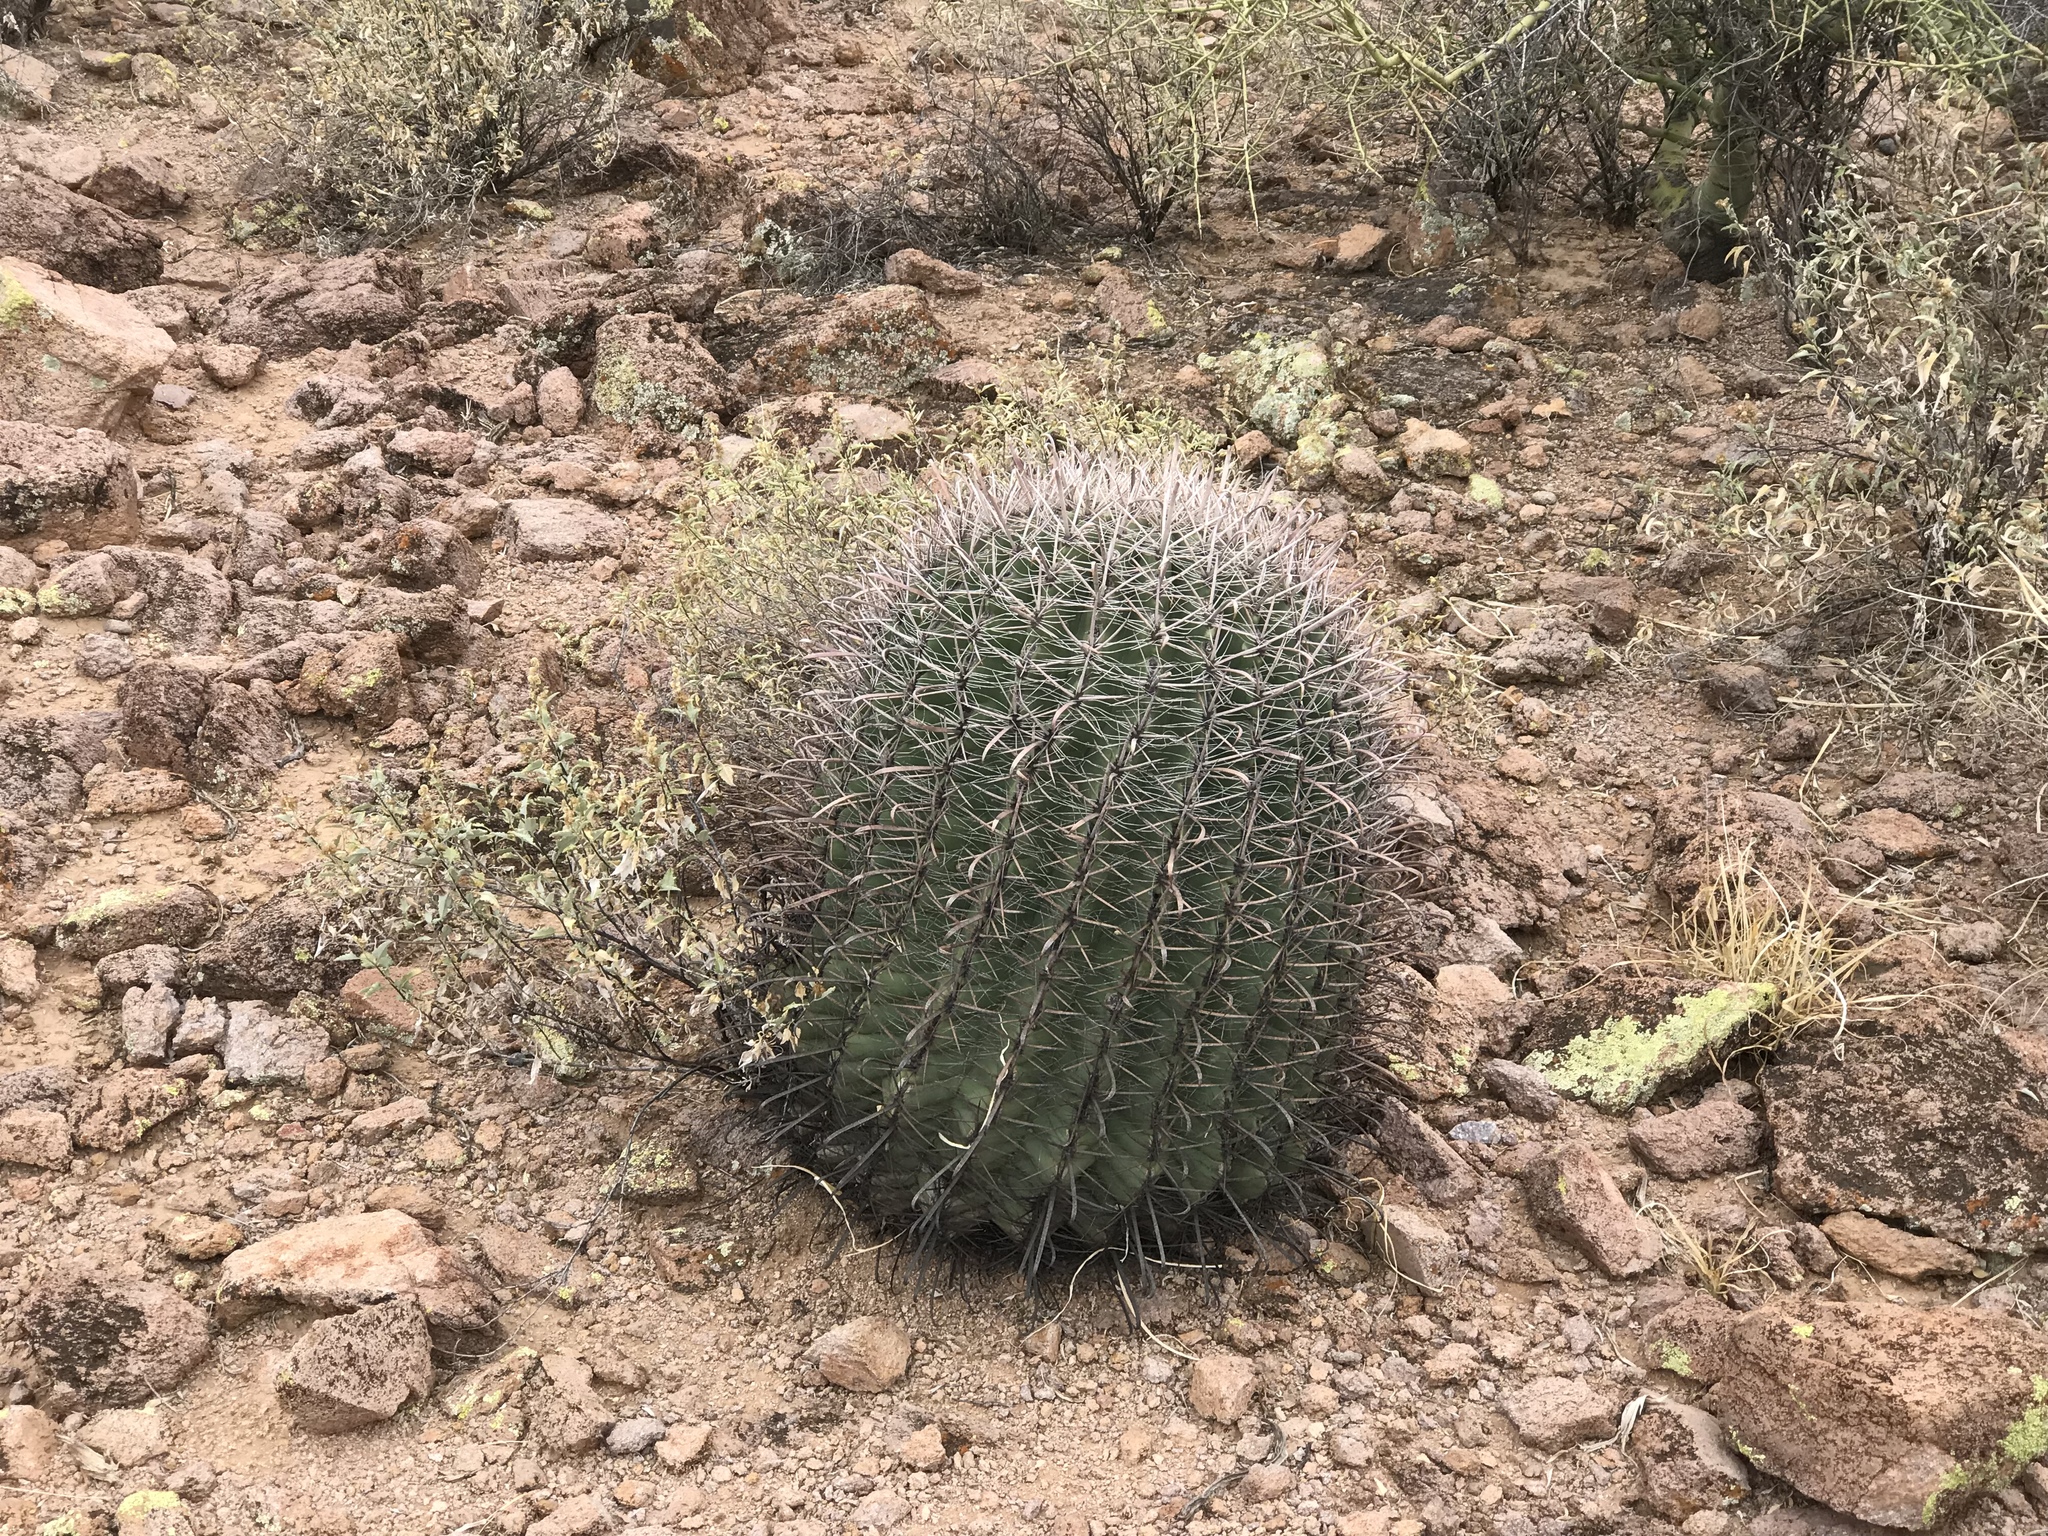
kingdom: Plantae
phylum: Tracheophyta
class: Magnoliopsida
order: Caryophyllales
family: Cactaceae
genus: Ferocactus
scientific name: Ferocactus wislizeni
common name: Candy barrel cactus
